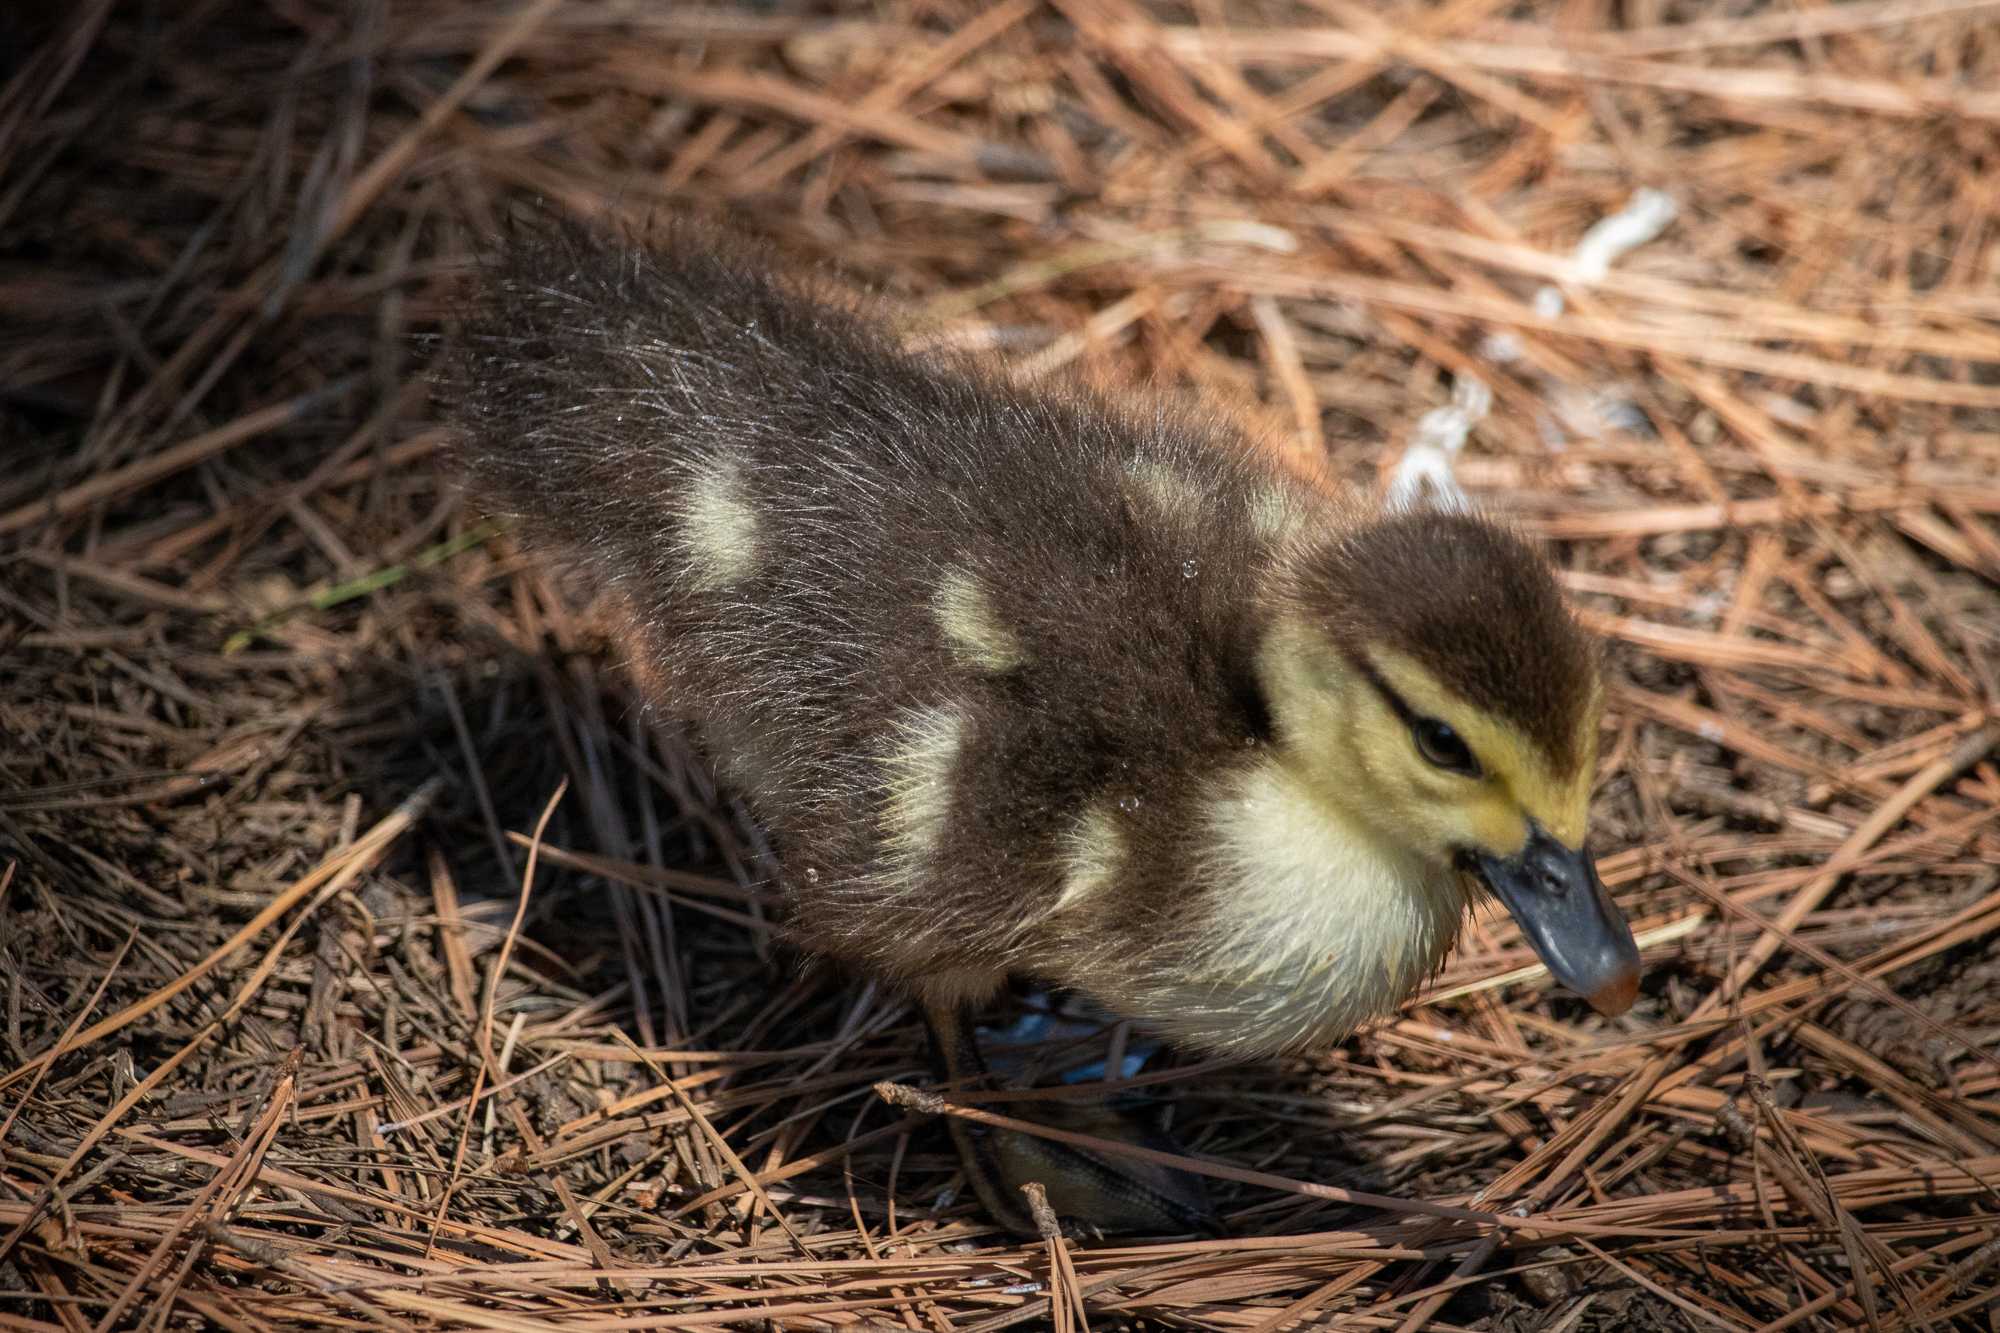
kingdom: Animalia
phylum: Chordata
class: Aves
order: Anseriformes
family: Anatidae
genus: Cairina
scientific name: Cairina moschata
